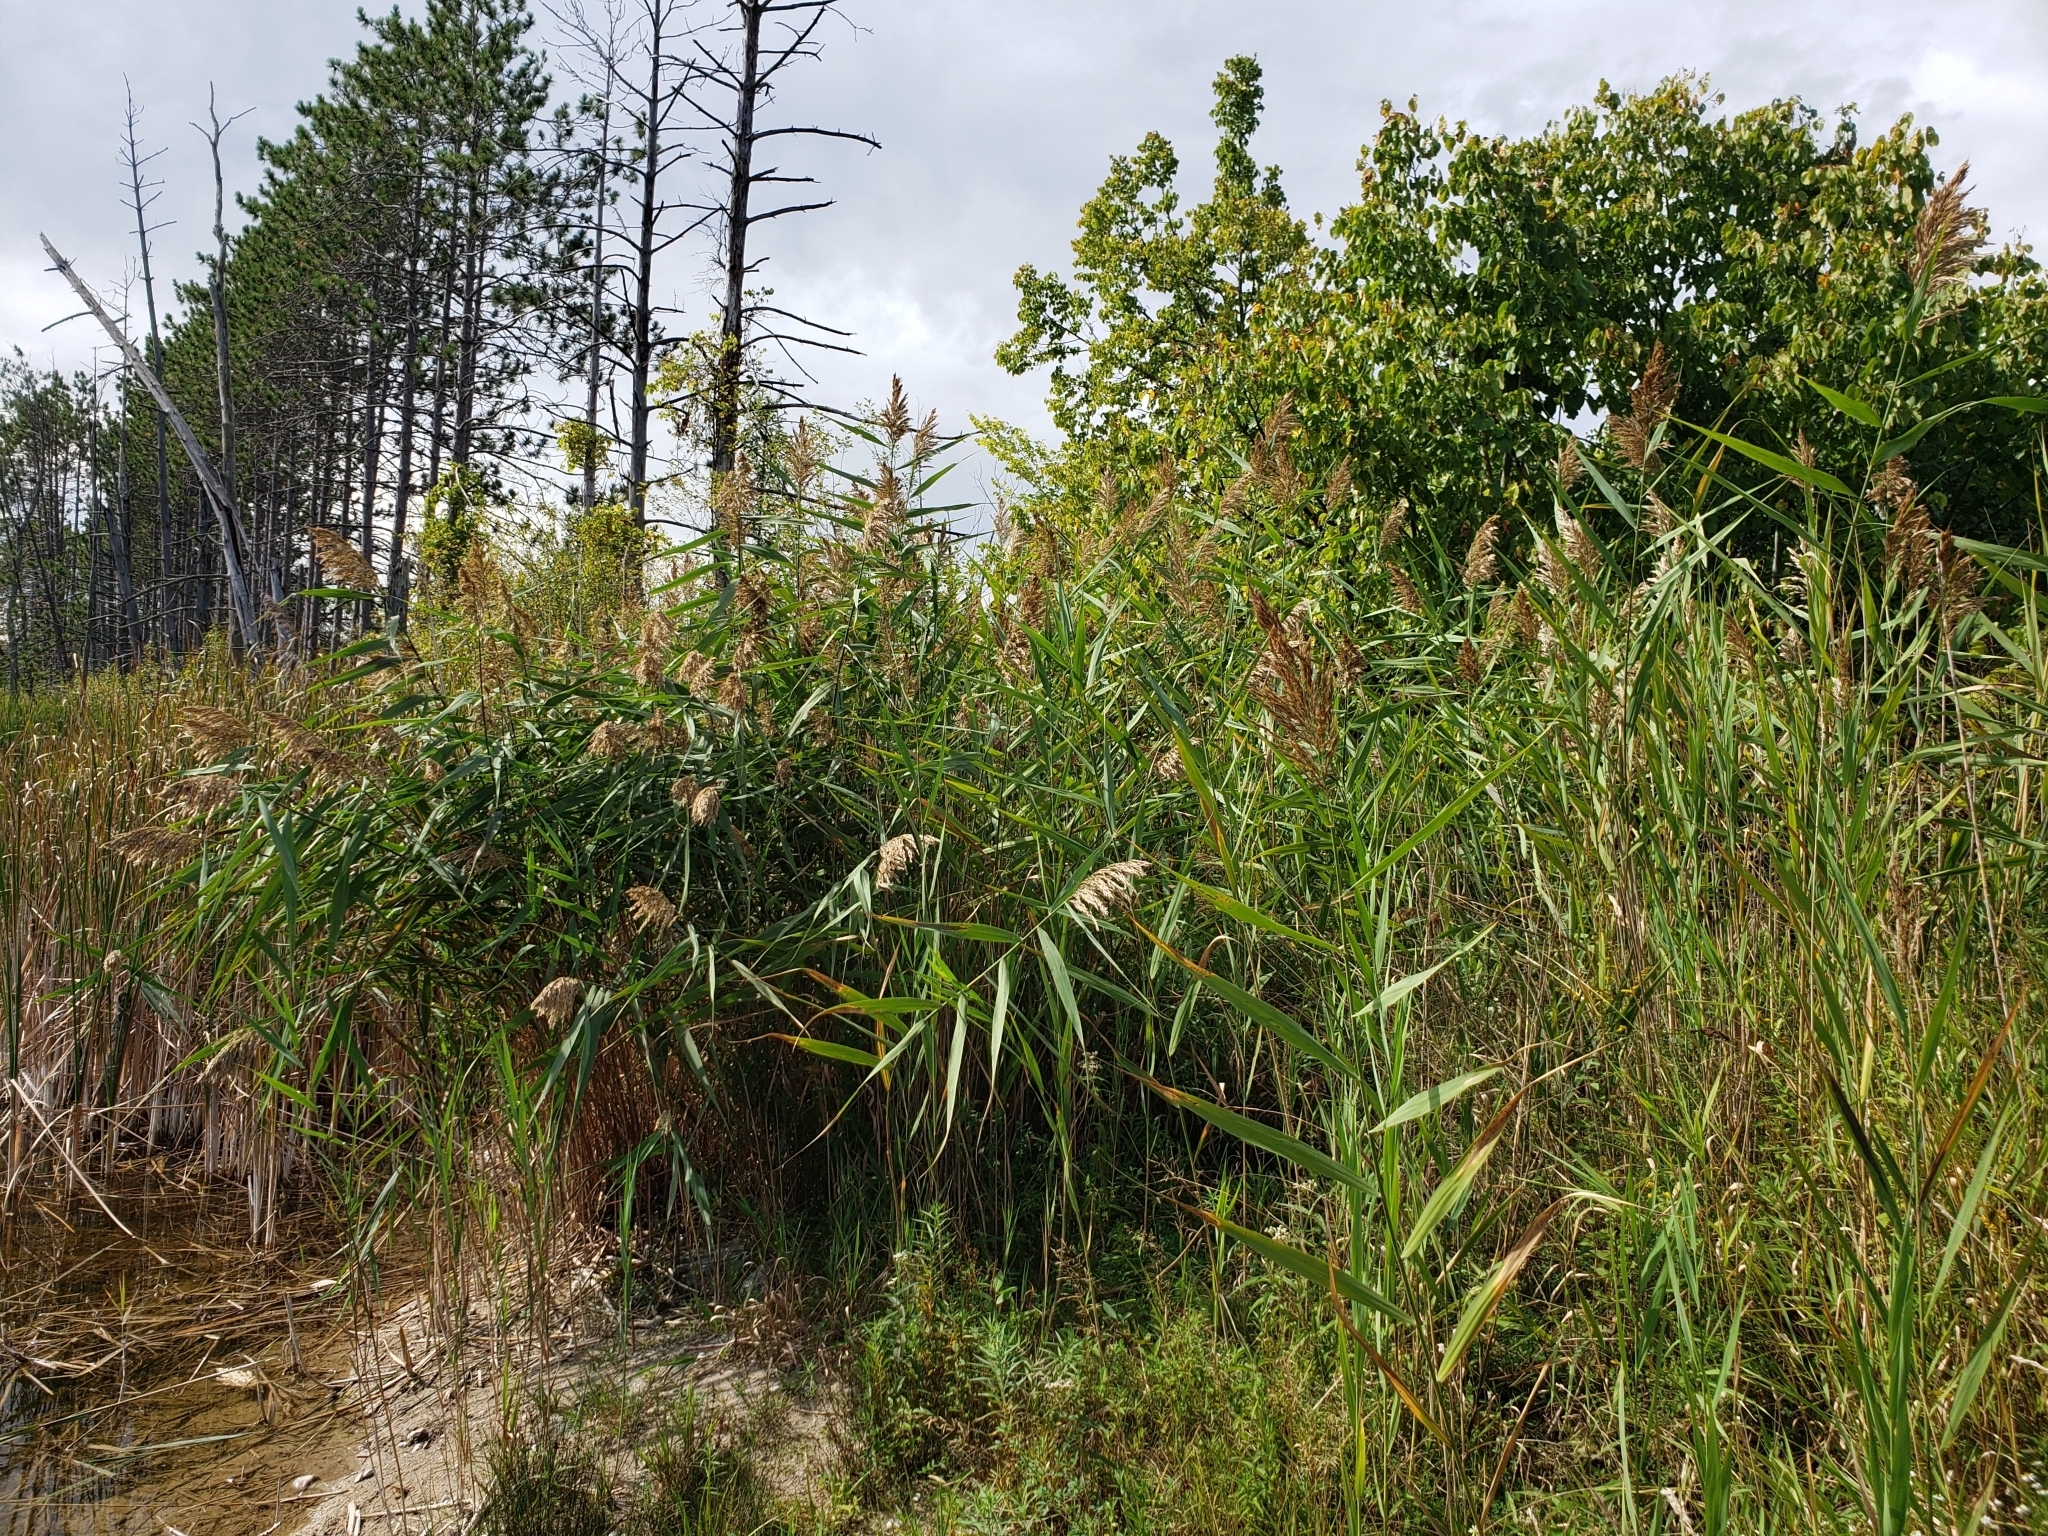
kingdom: Plantae
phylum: Tracheophyta
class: Liliopsida
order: Poales
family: Poaceae
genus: Phragmites
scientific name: Phragmites australis
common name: Common reed
